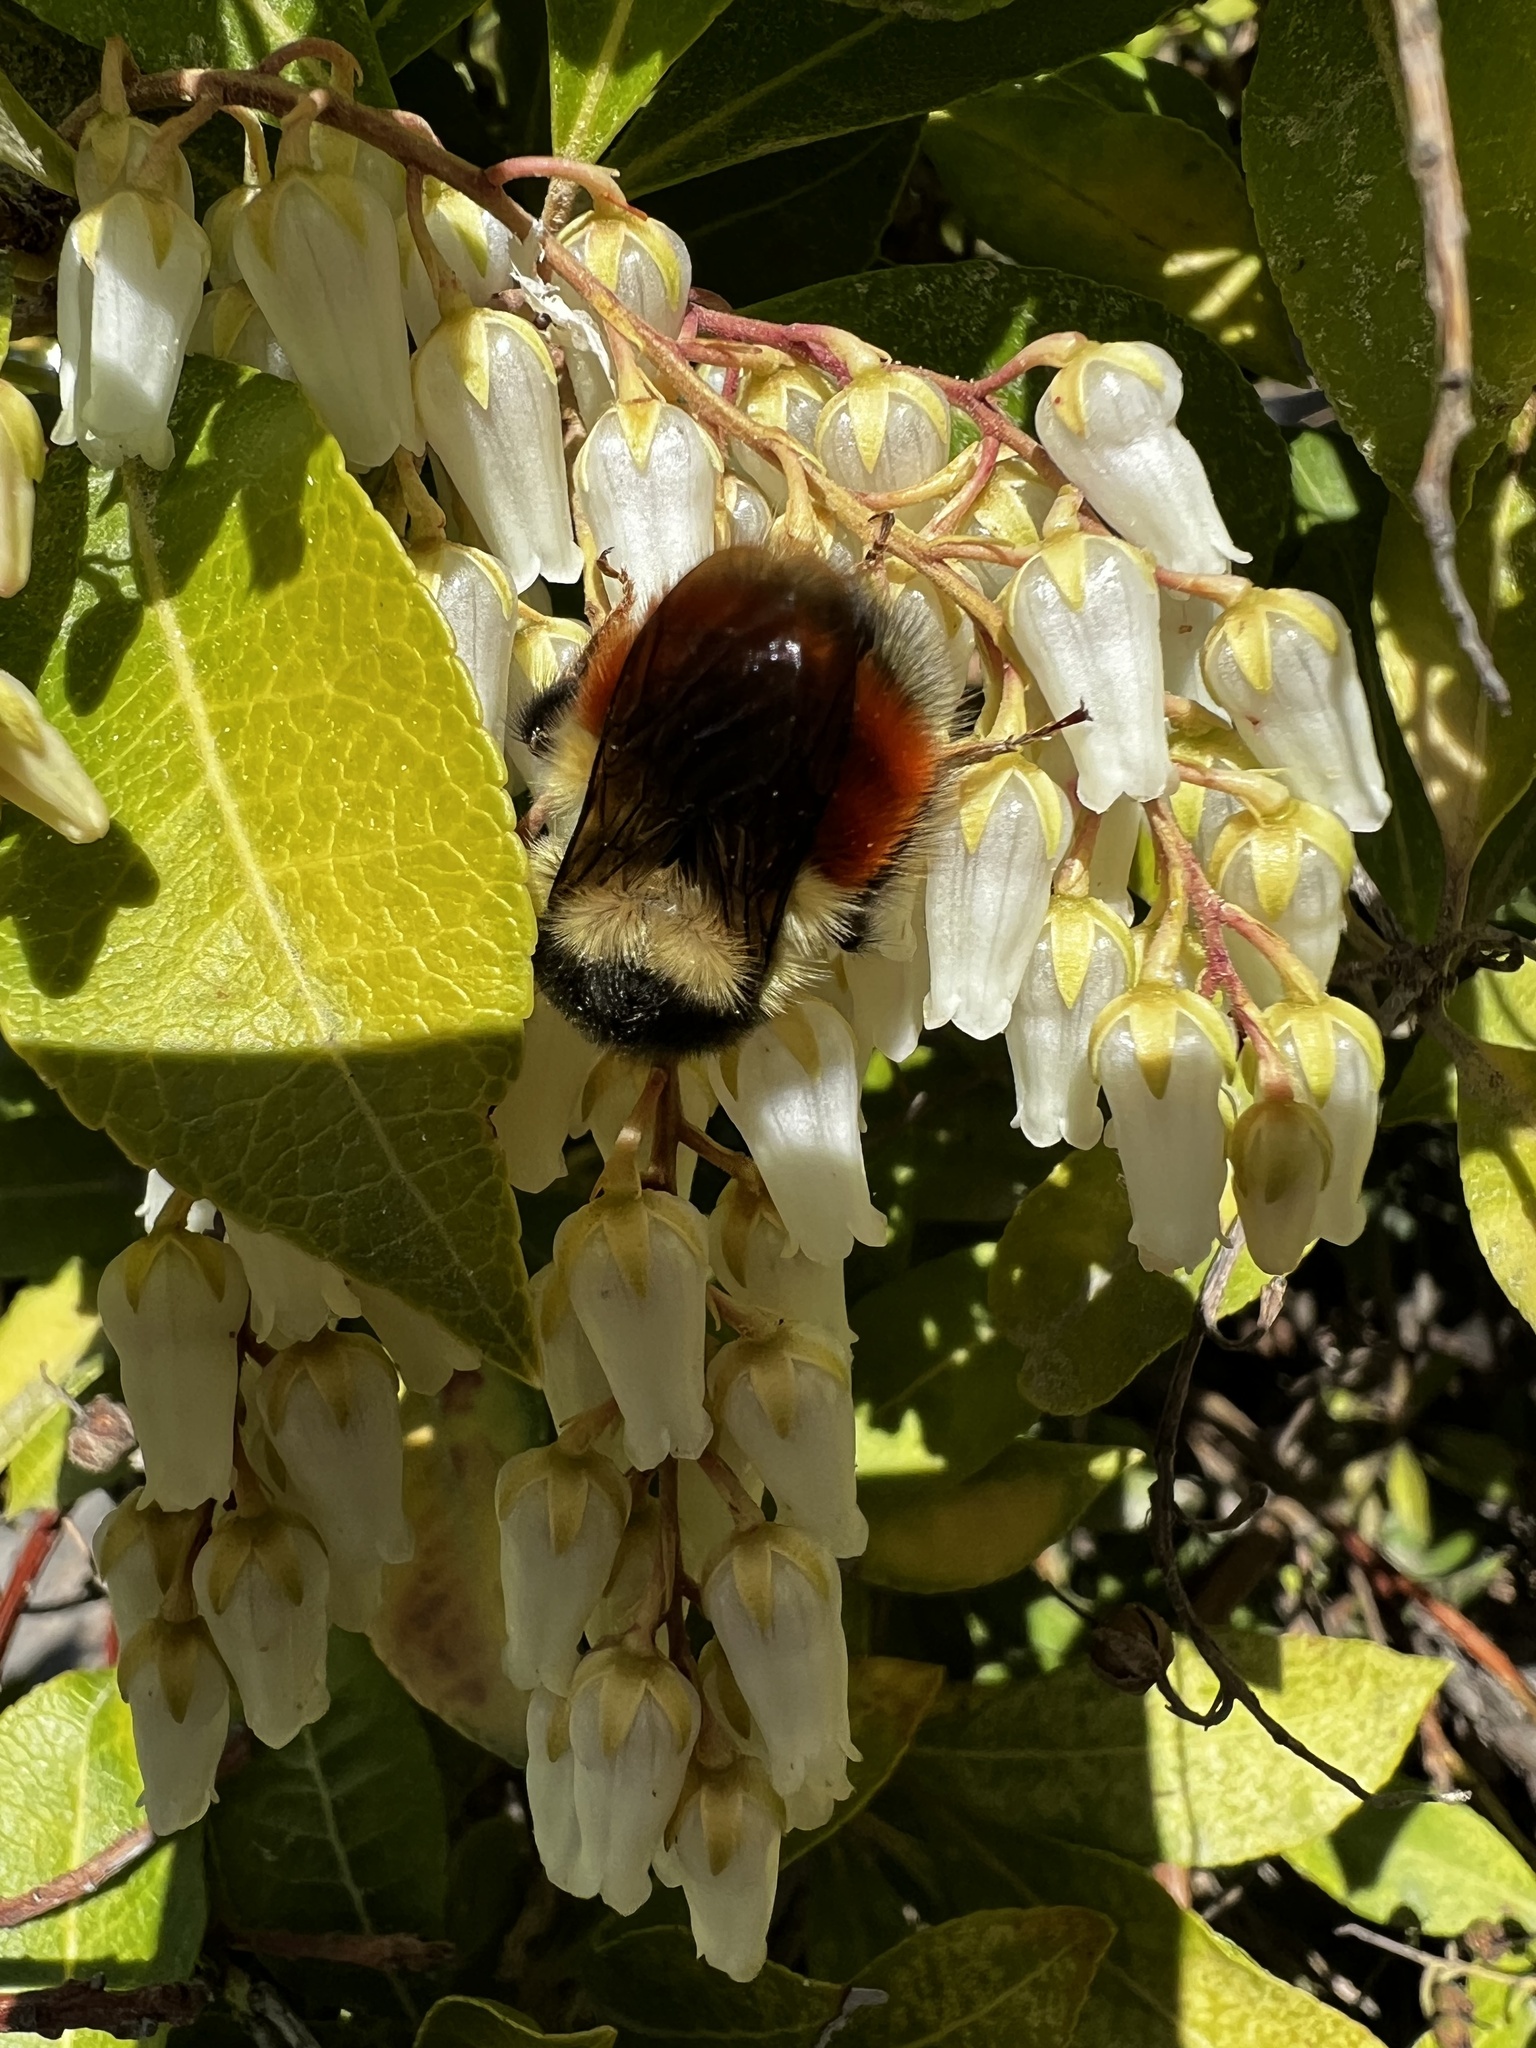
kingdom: Animalia
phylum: Arthropoda
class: Insecta
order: Hymenoptera
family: Apidae
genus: Bombus
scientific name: Bombus melanopygus
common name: Black tail bumble bee
